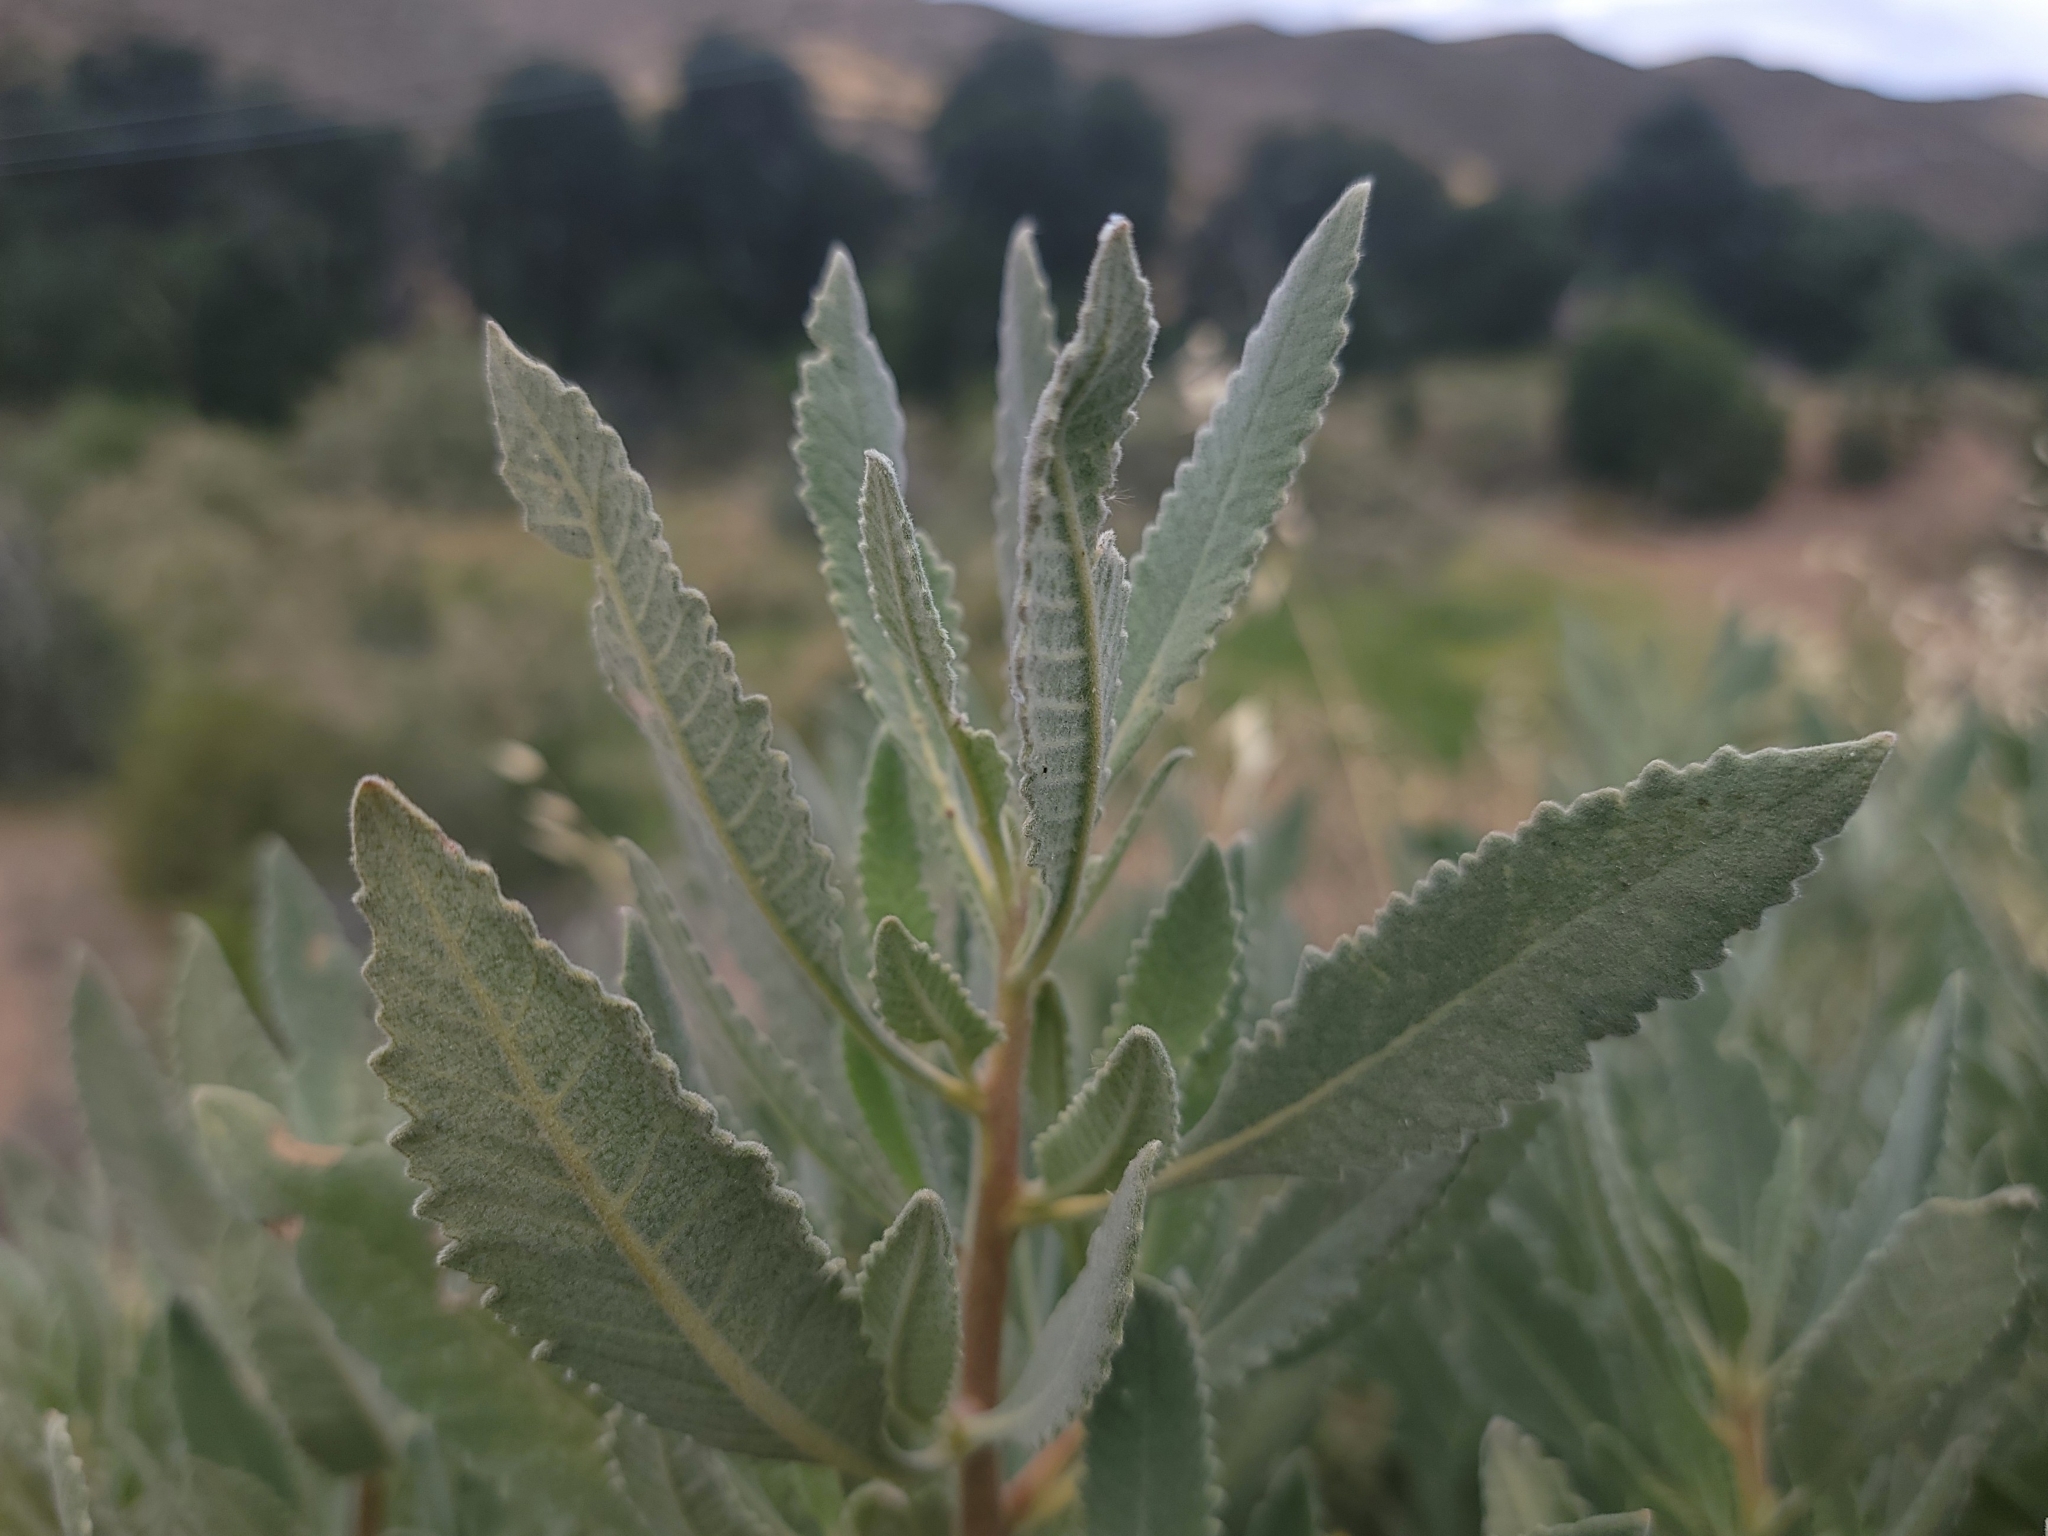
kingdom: Plantae
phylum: Tracheophyta
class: Magnoliopsida
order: Boraginales
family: Namaceae
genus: Eriodictyon
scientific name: Eriodictyon crassifolium
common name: Thick-leaf yerba-santa
